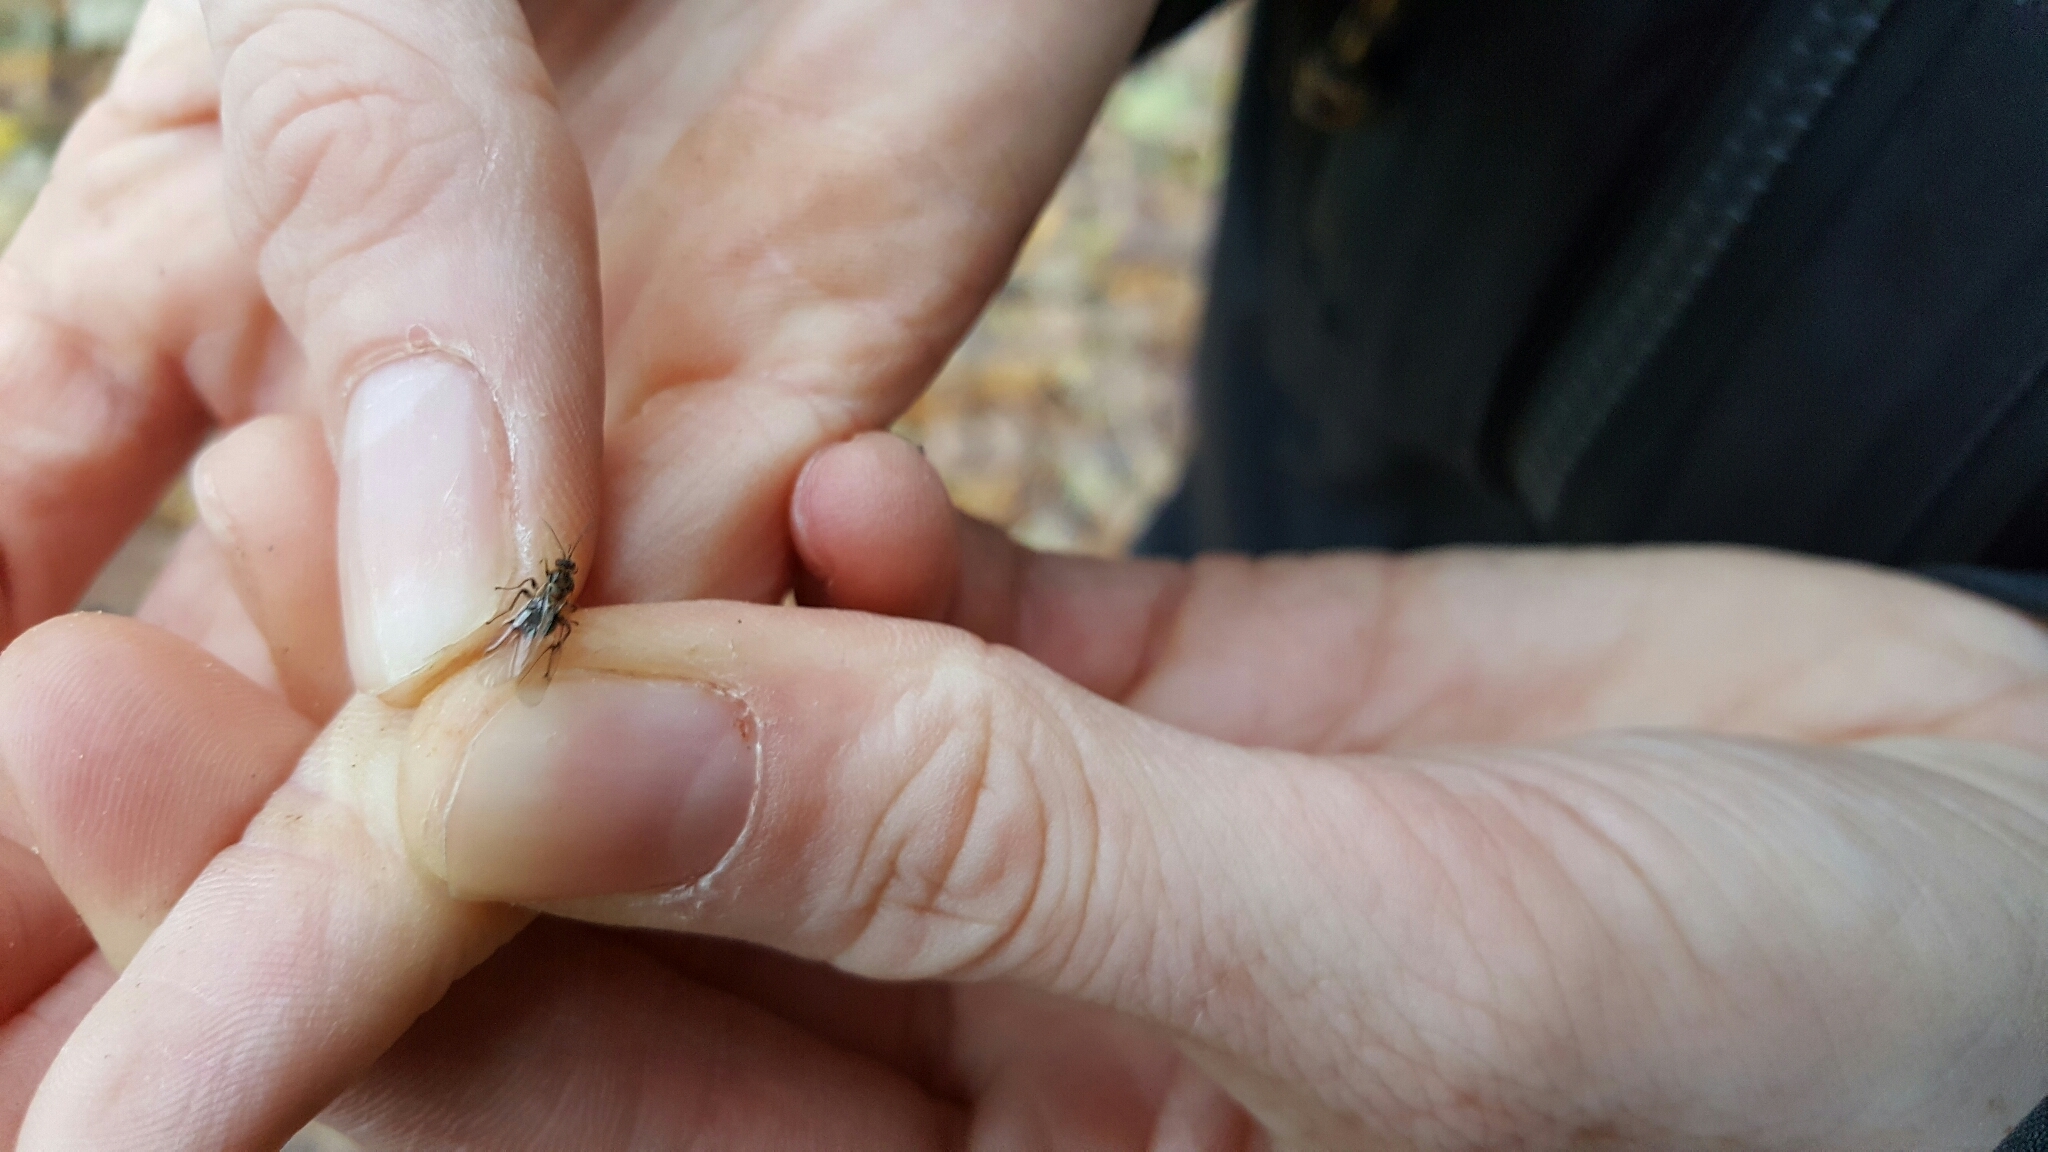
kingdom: Animalia
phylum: Arthropoda
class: Insecta
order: Hymenoptera
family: Cynipidae
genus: Cynips
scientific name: Cynips quercusfolii
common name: Cherry gall
